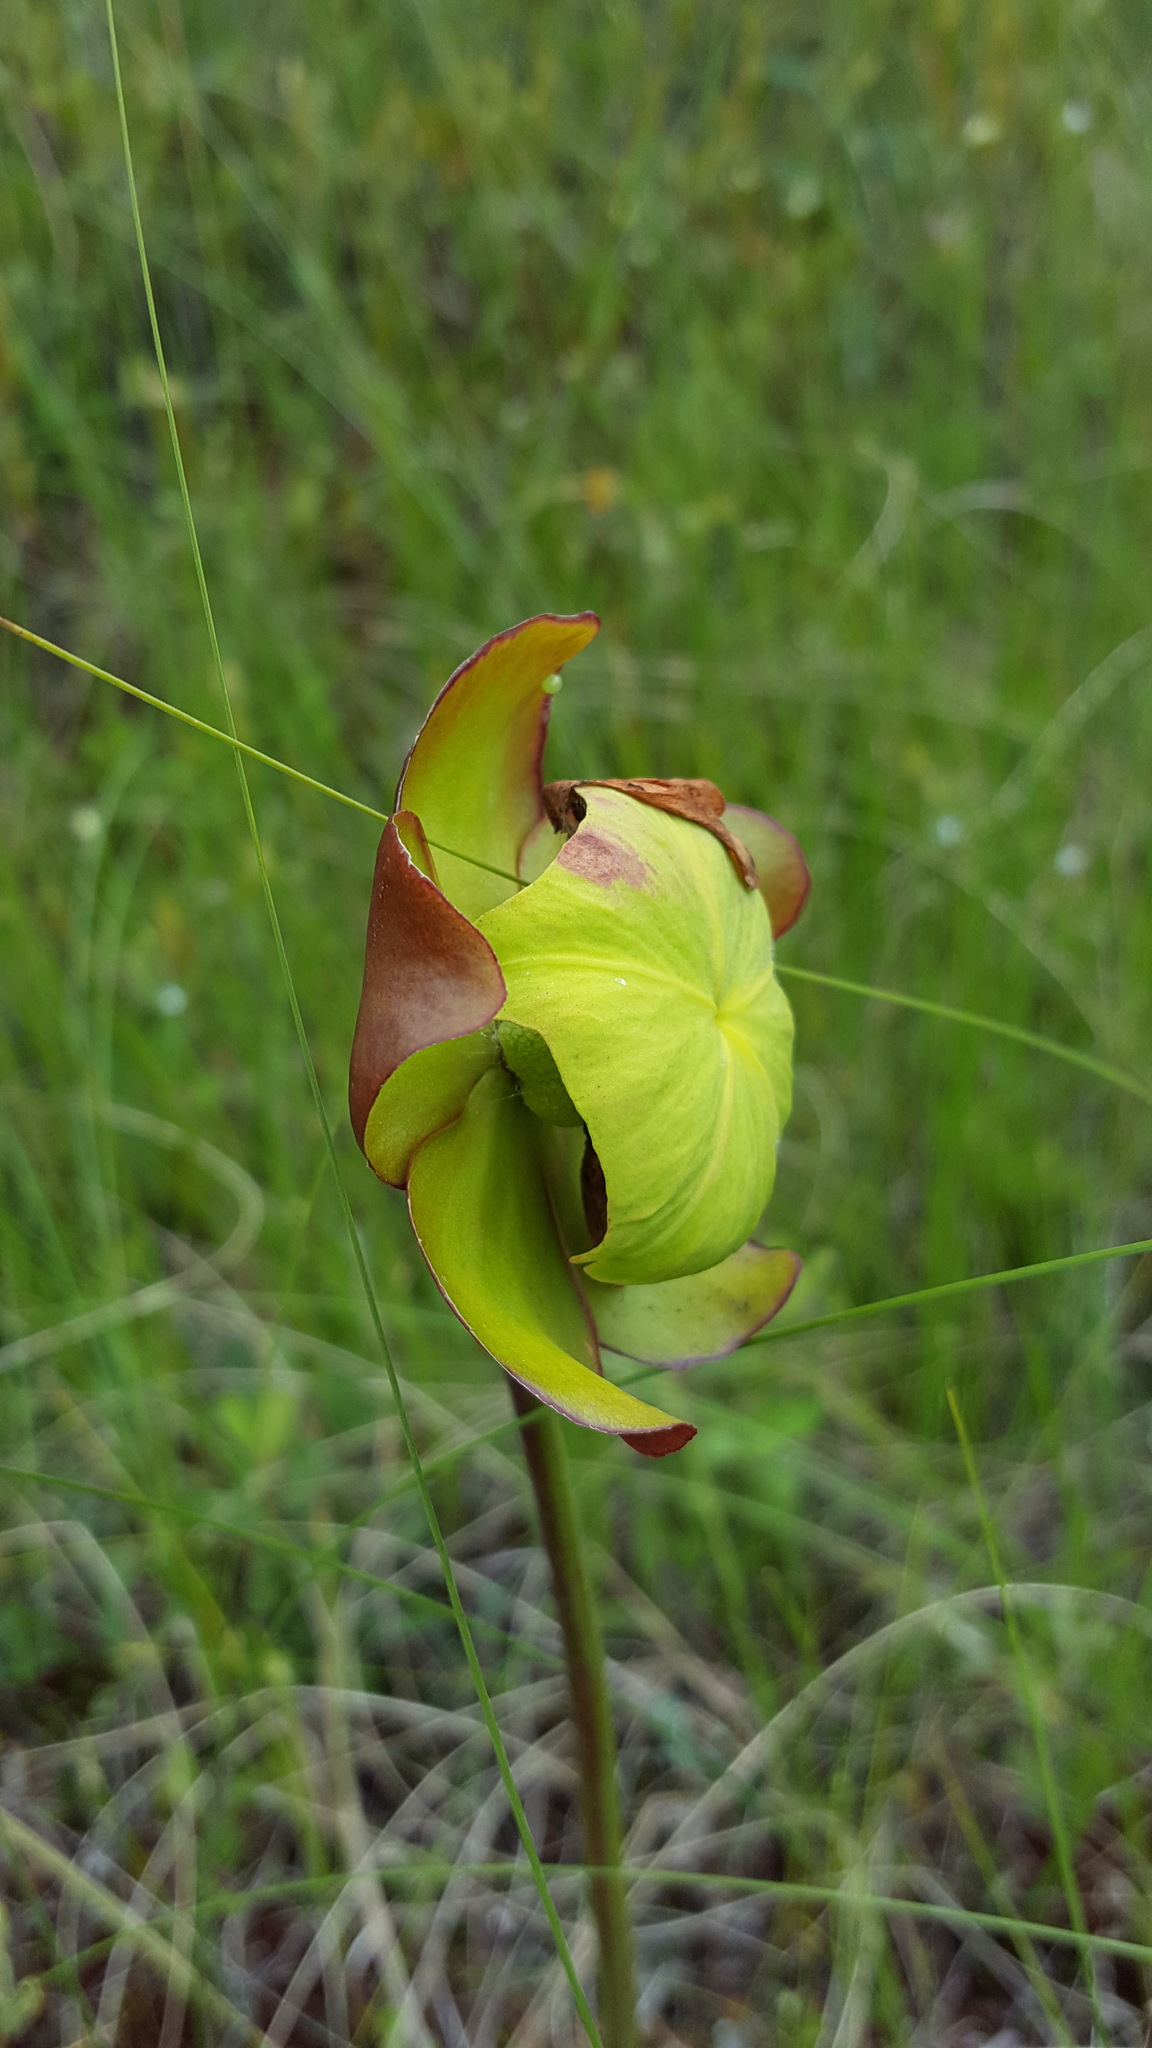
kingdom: Plantae
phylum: Tracheophyta
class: Magnoliopsida
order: Ericales
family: Sarraceniaceae
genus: Sarracenia
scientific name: Sarracenia purpurea
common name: Pitcherplant
